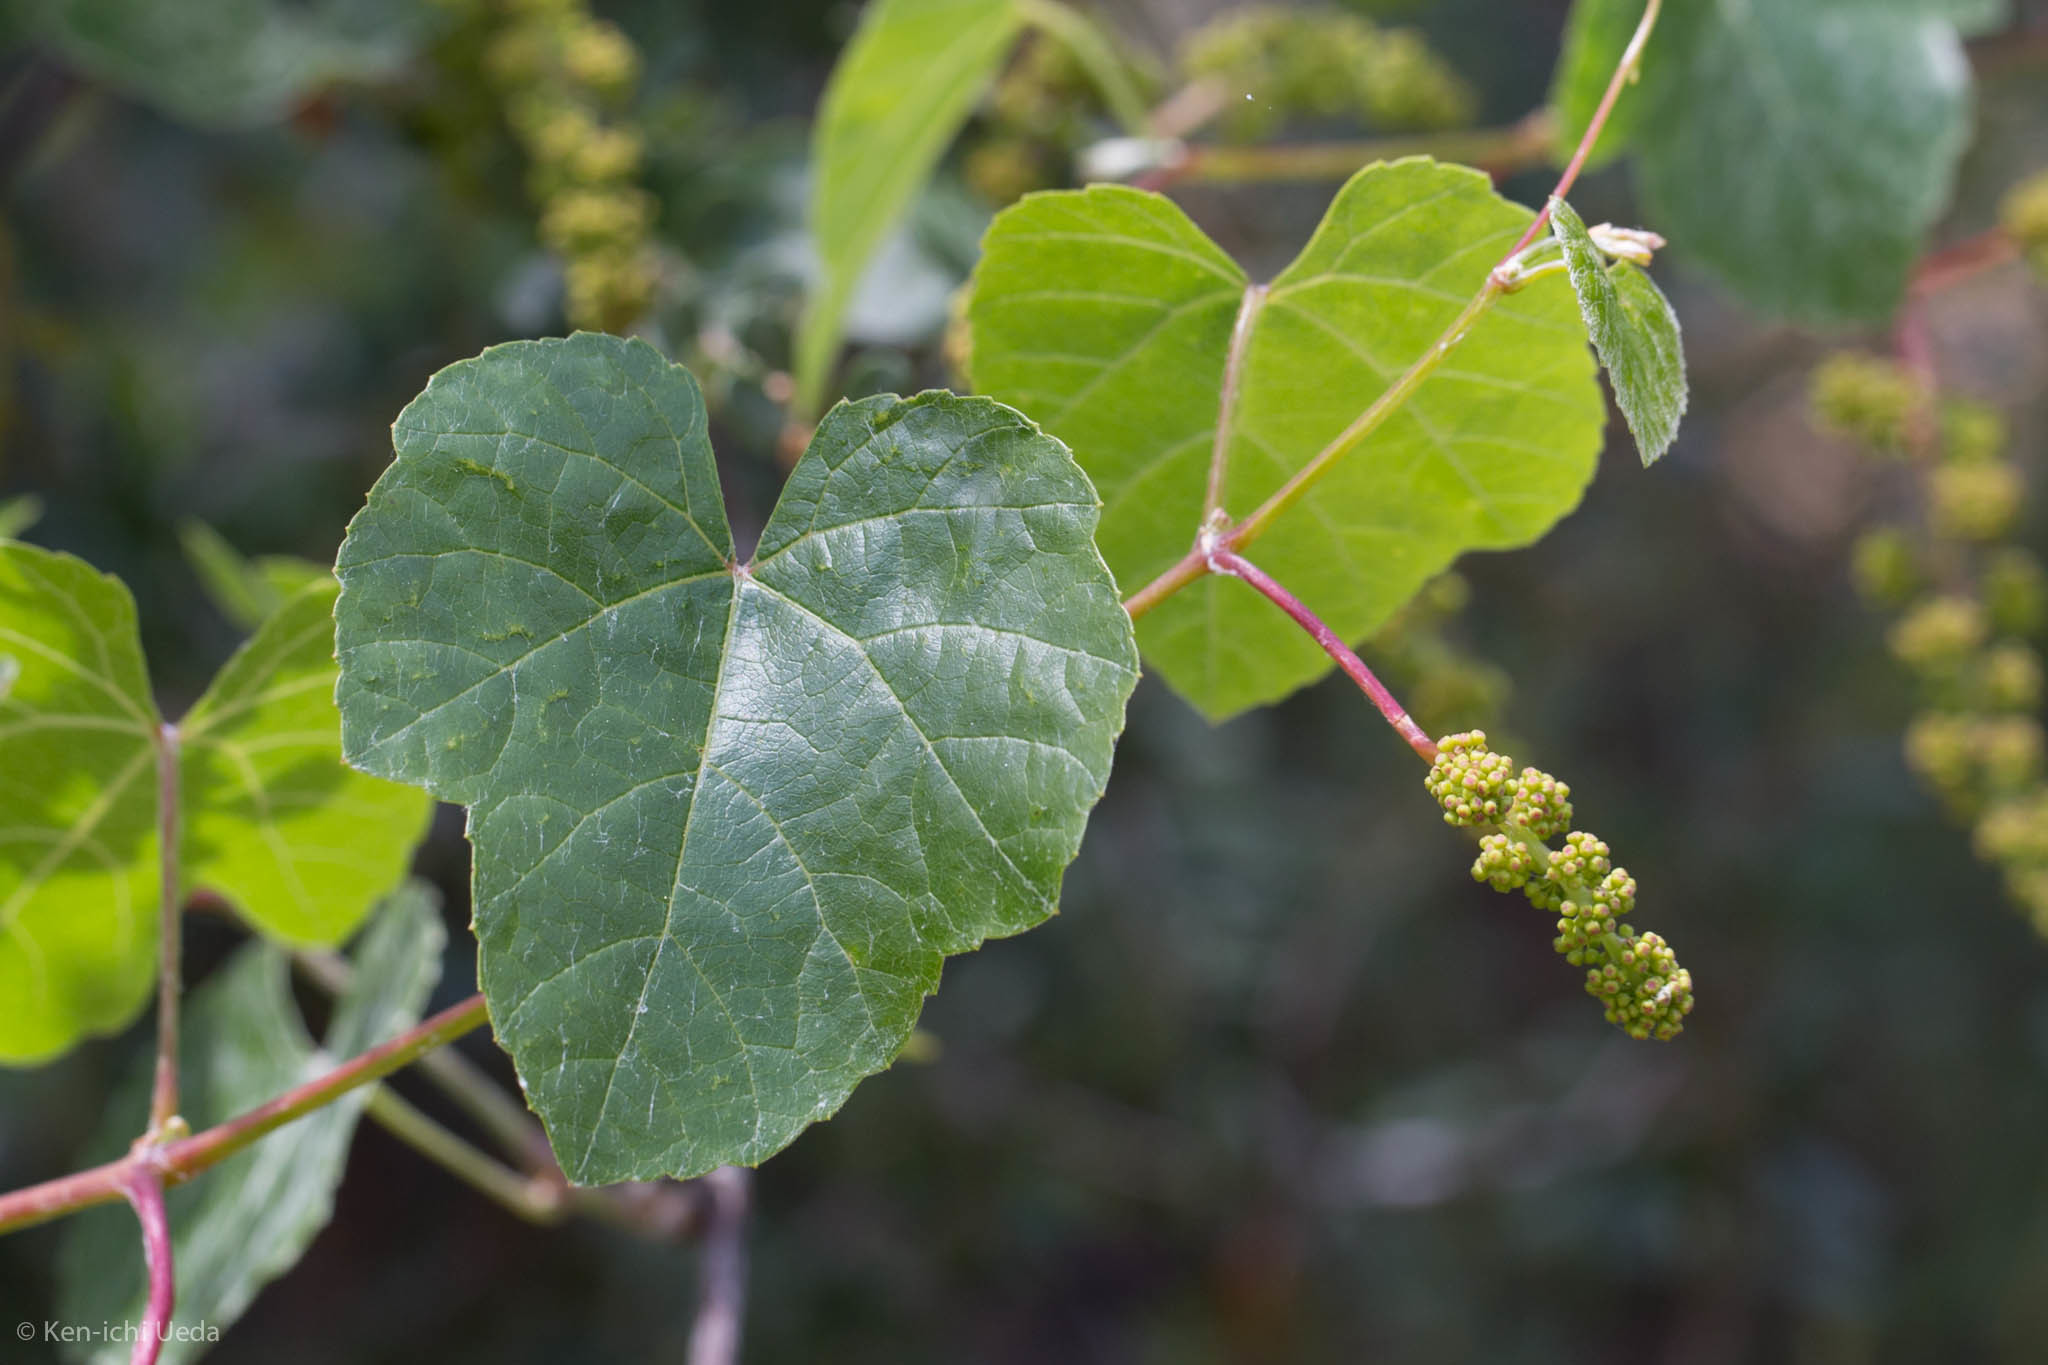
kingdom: Plantae
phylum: Tracheophyta
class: Magnoliopsida
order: Vitales
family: Vitaceae
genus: Vitis
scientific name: Vitis californica
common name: California wild grape
